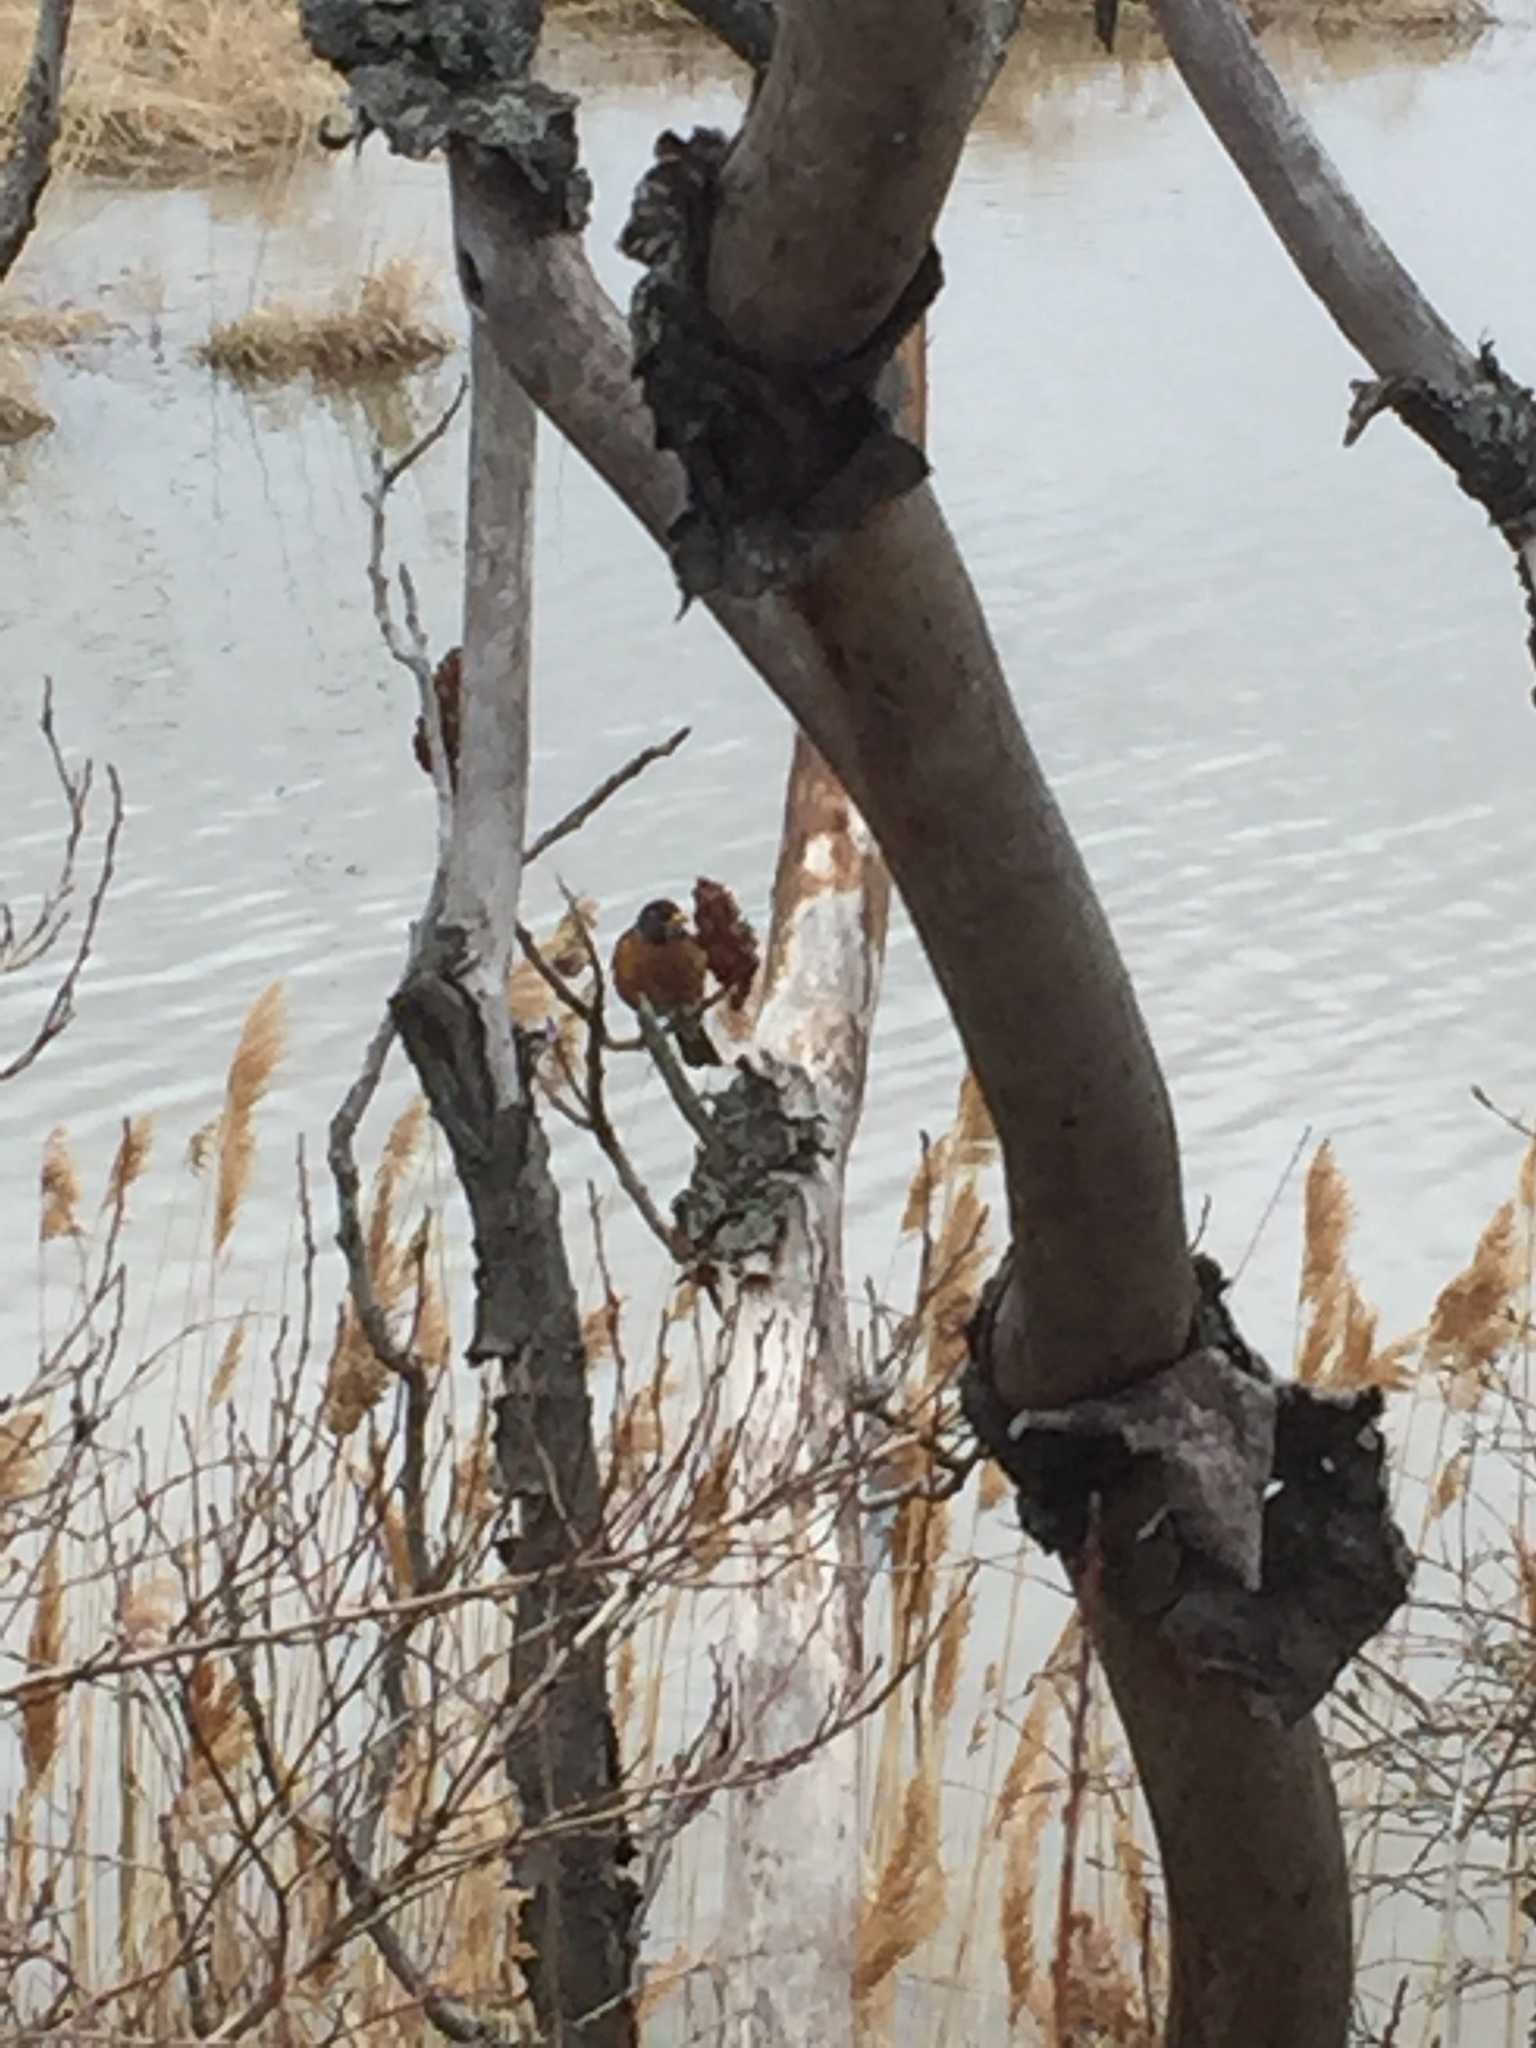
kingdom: Animalia
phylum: Chordata
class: Aves
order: Passeriformes
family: Turdidae
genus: Turdus
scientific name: Turdus migratorius
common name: American robin
